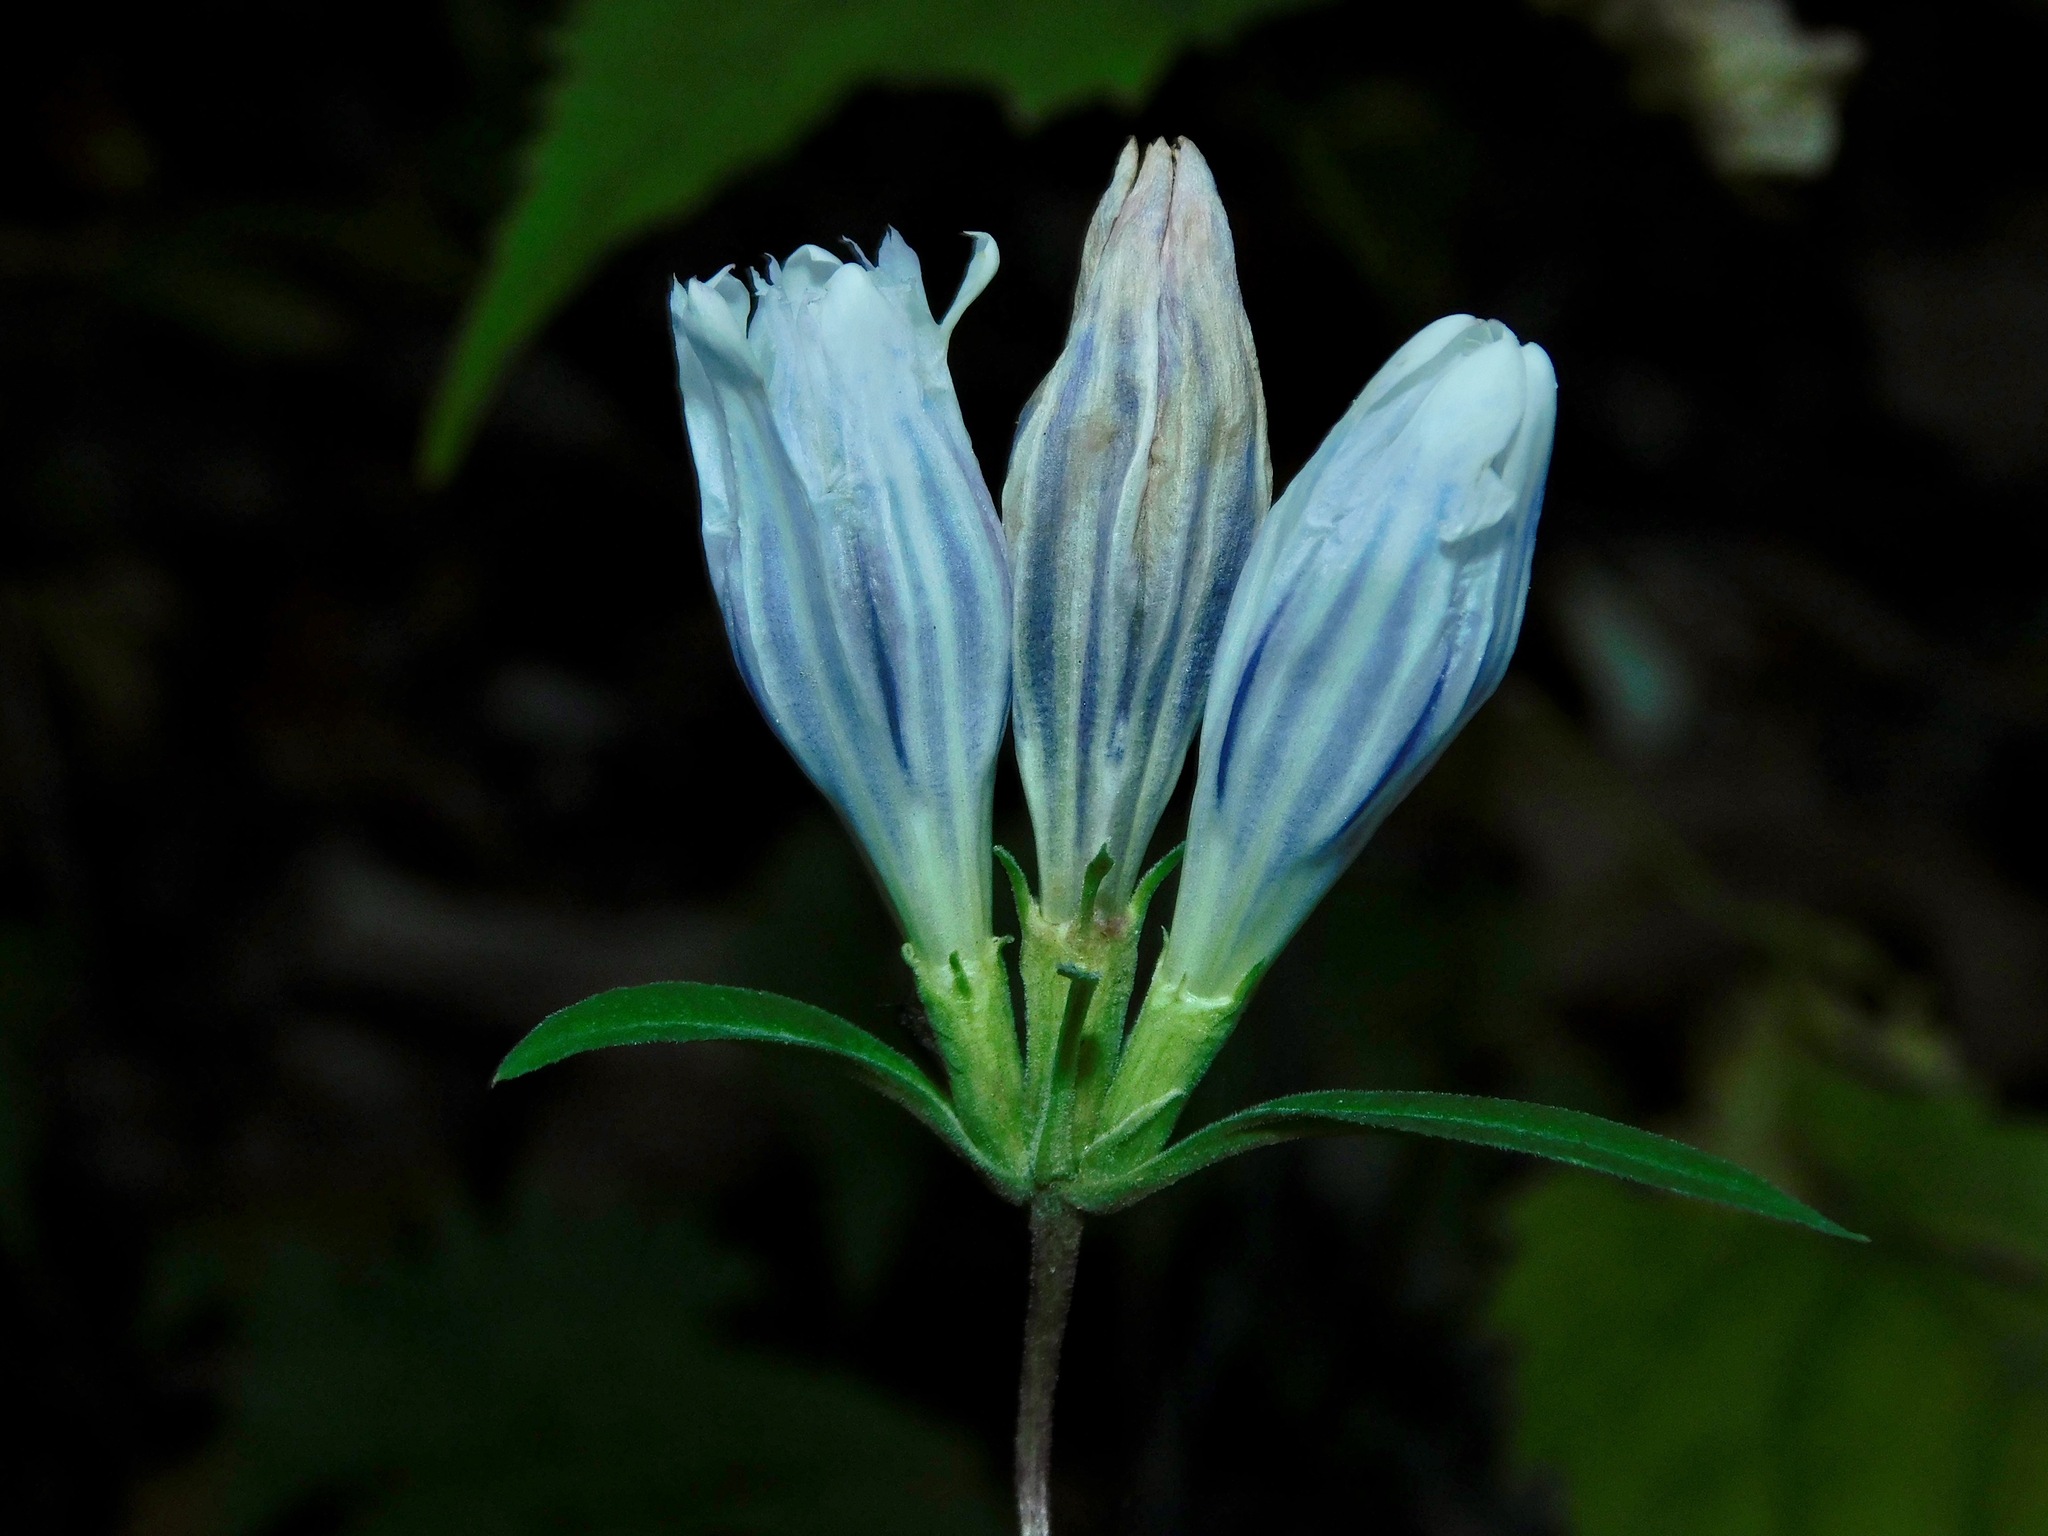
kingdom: Plantae
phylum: Tracheophyta
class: Magnoliopsida
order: Gentianales
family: Gentianaceae
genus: Gentiana
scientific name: Gentiana villosa
